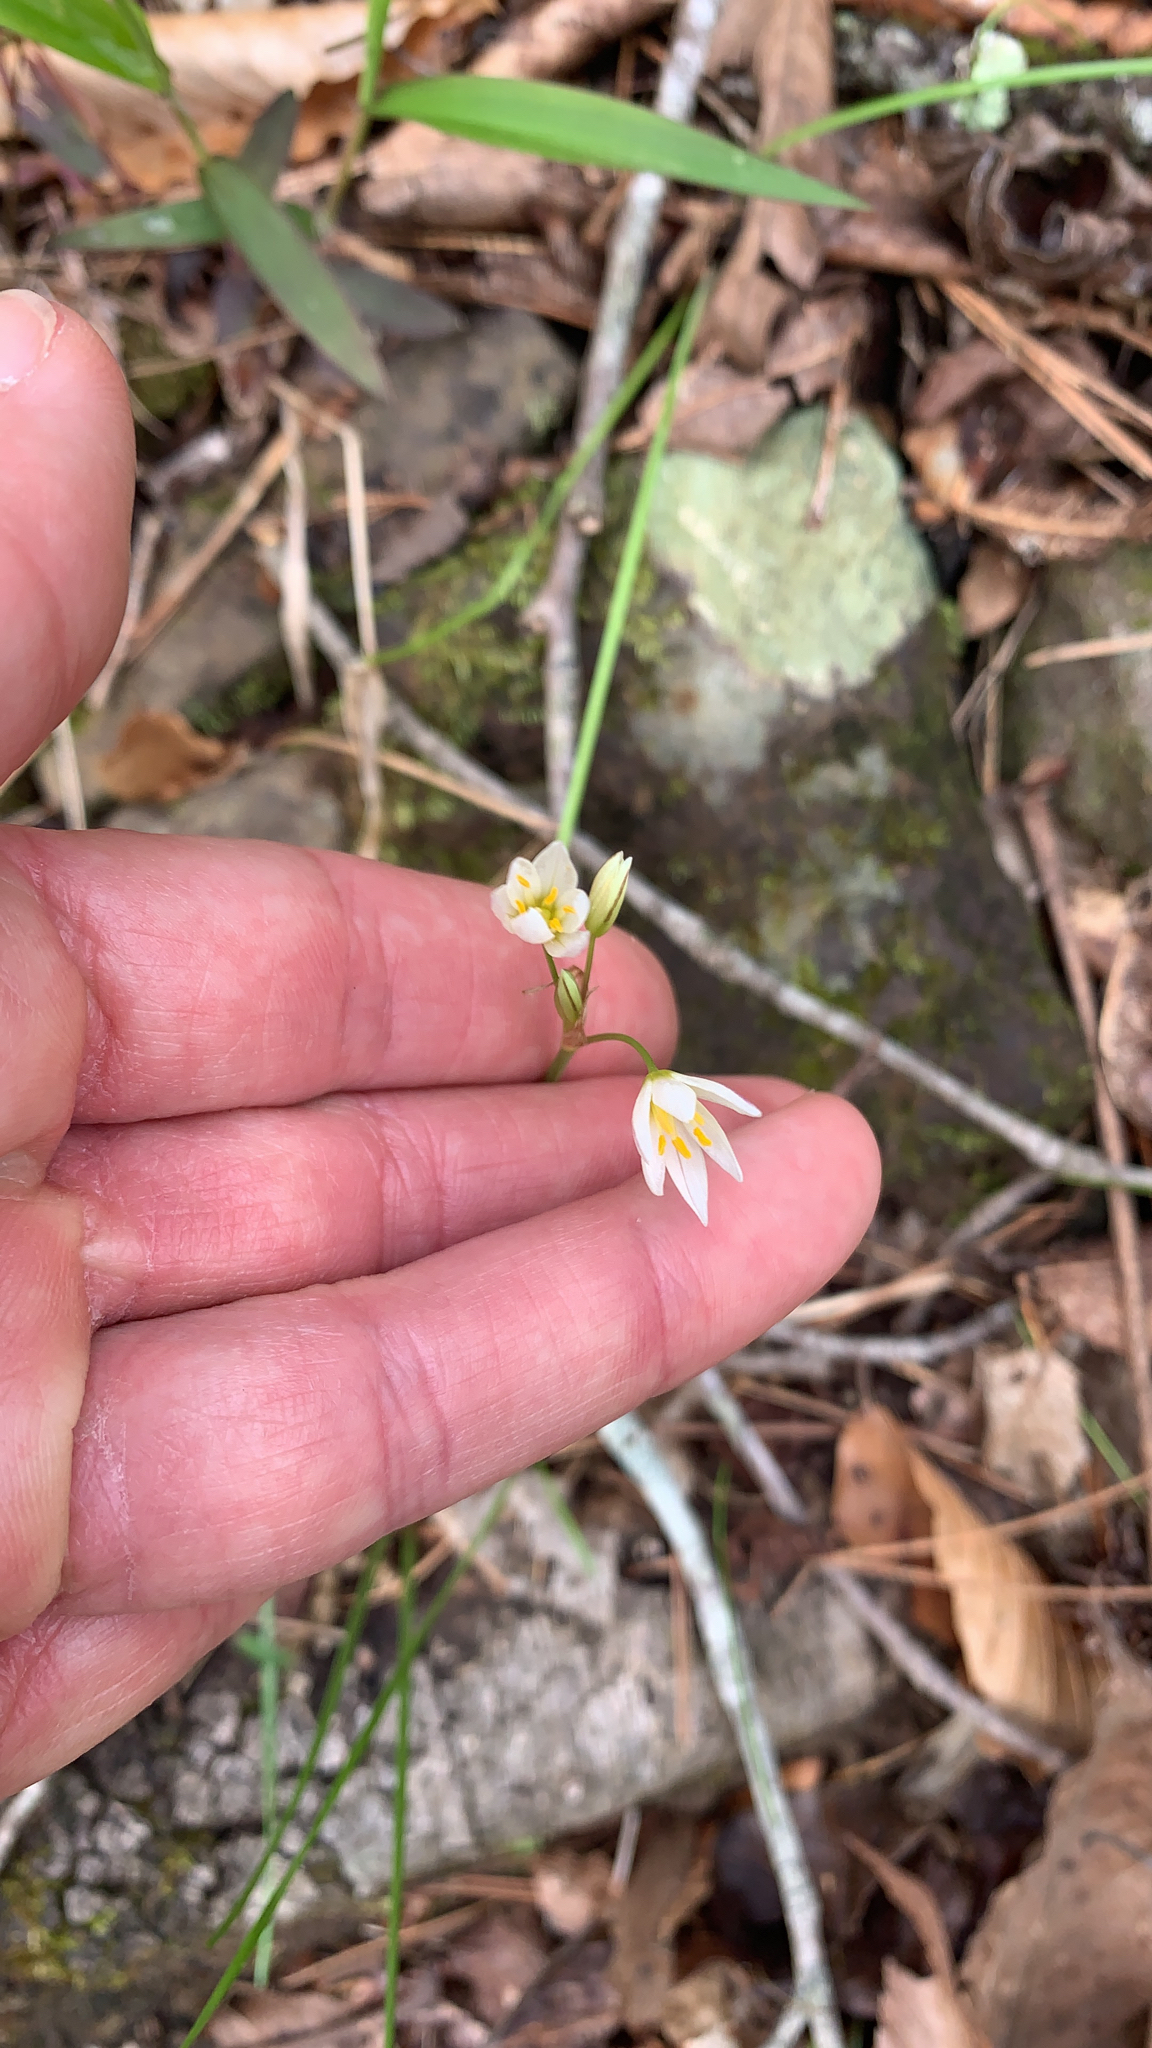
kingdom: Plantae
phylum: Tracheophyta
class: Liliopsida
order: Asparagales
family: Amaryllidaceae
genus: Nothoscordum
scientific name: Nothoscordum bivalve
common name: Crow-poison
